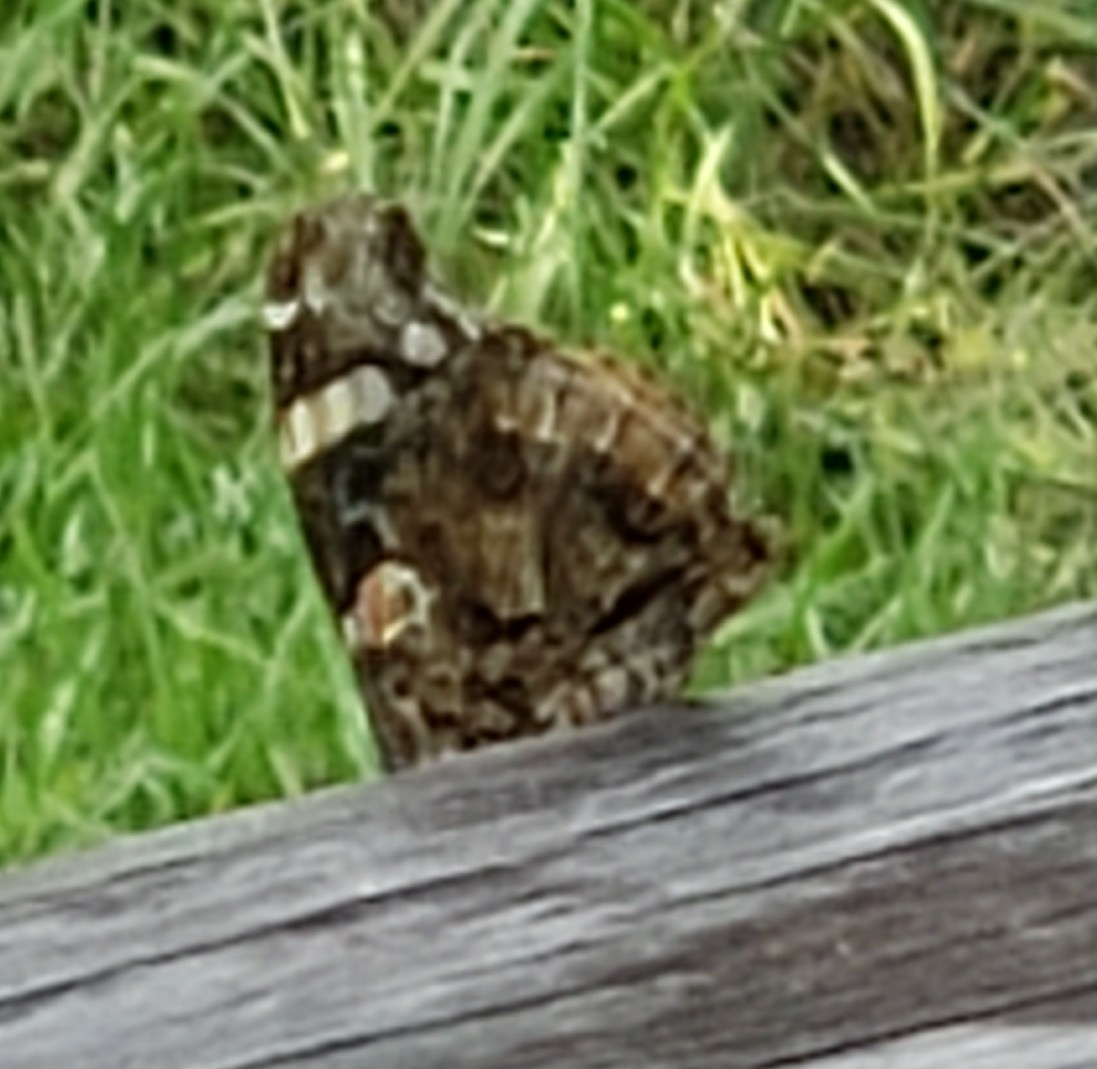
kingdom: Animalia
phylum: Arthropoda
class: Insecta
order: Lepidoptera
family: Nymphalidae
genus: Vanessa
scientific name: Vanessa atalanta
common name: Red admiral
